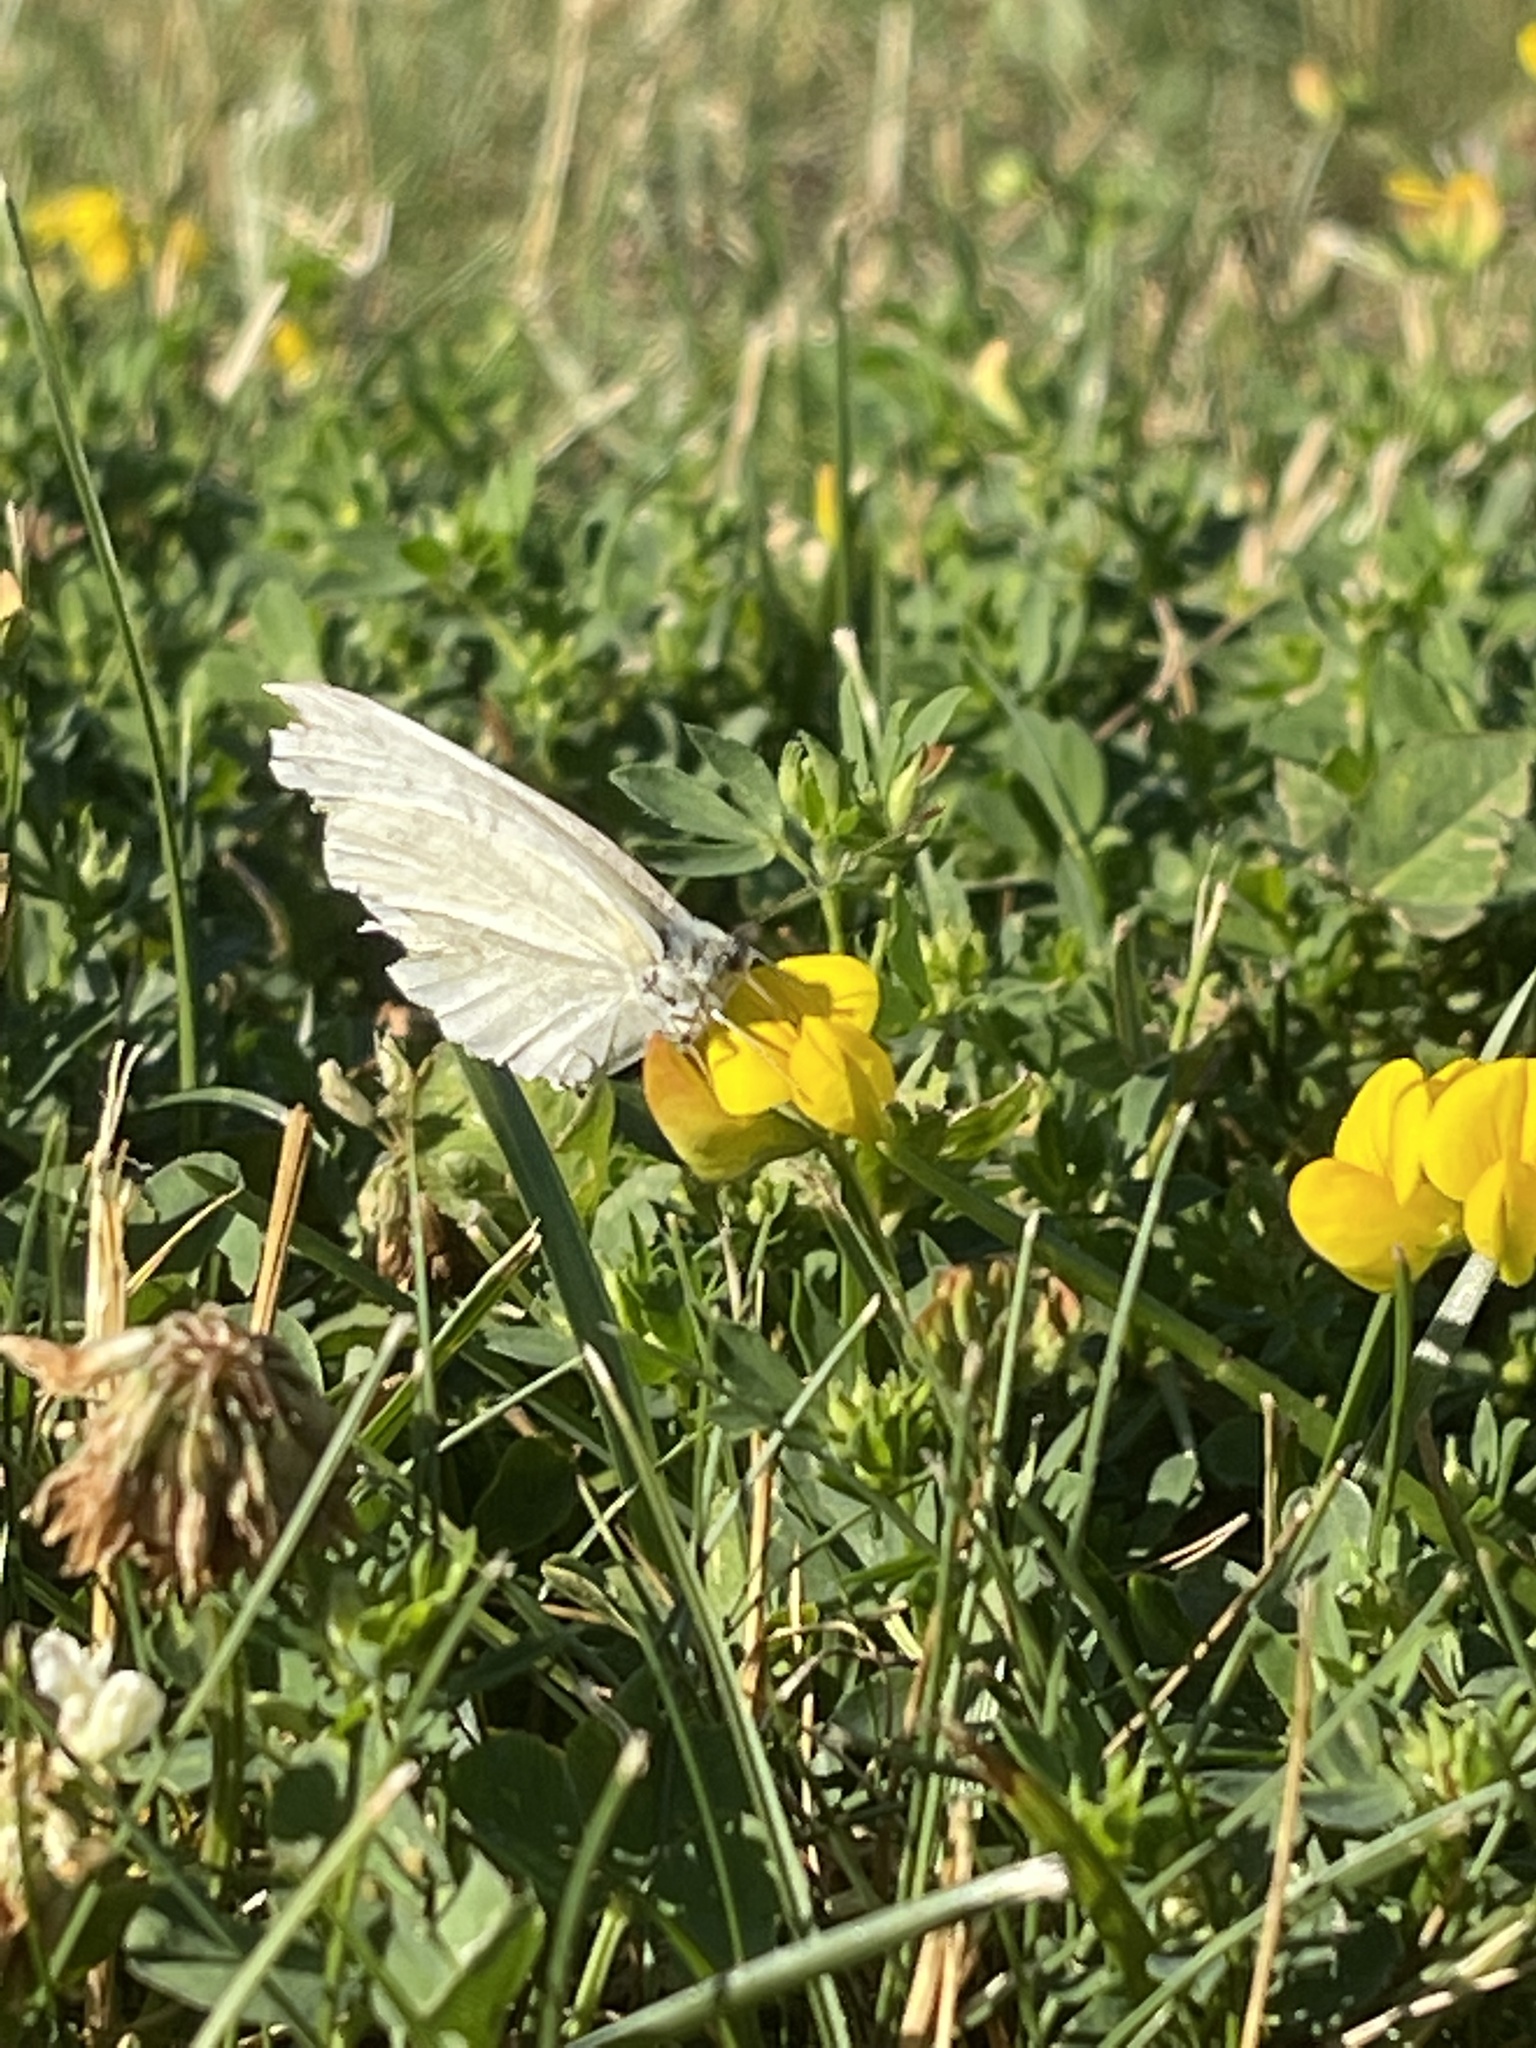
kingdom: Animalia
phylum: Arthropoda
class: Insecta
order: Lepidoptera
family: Pieridae
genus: Pieris
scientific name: Pieris rapae
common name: Small white
